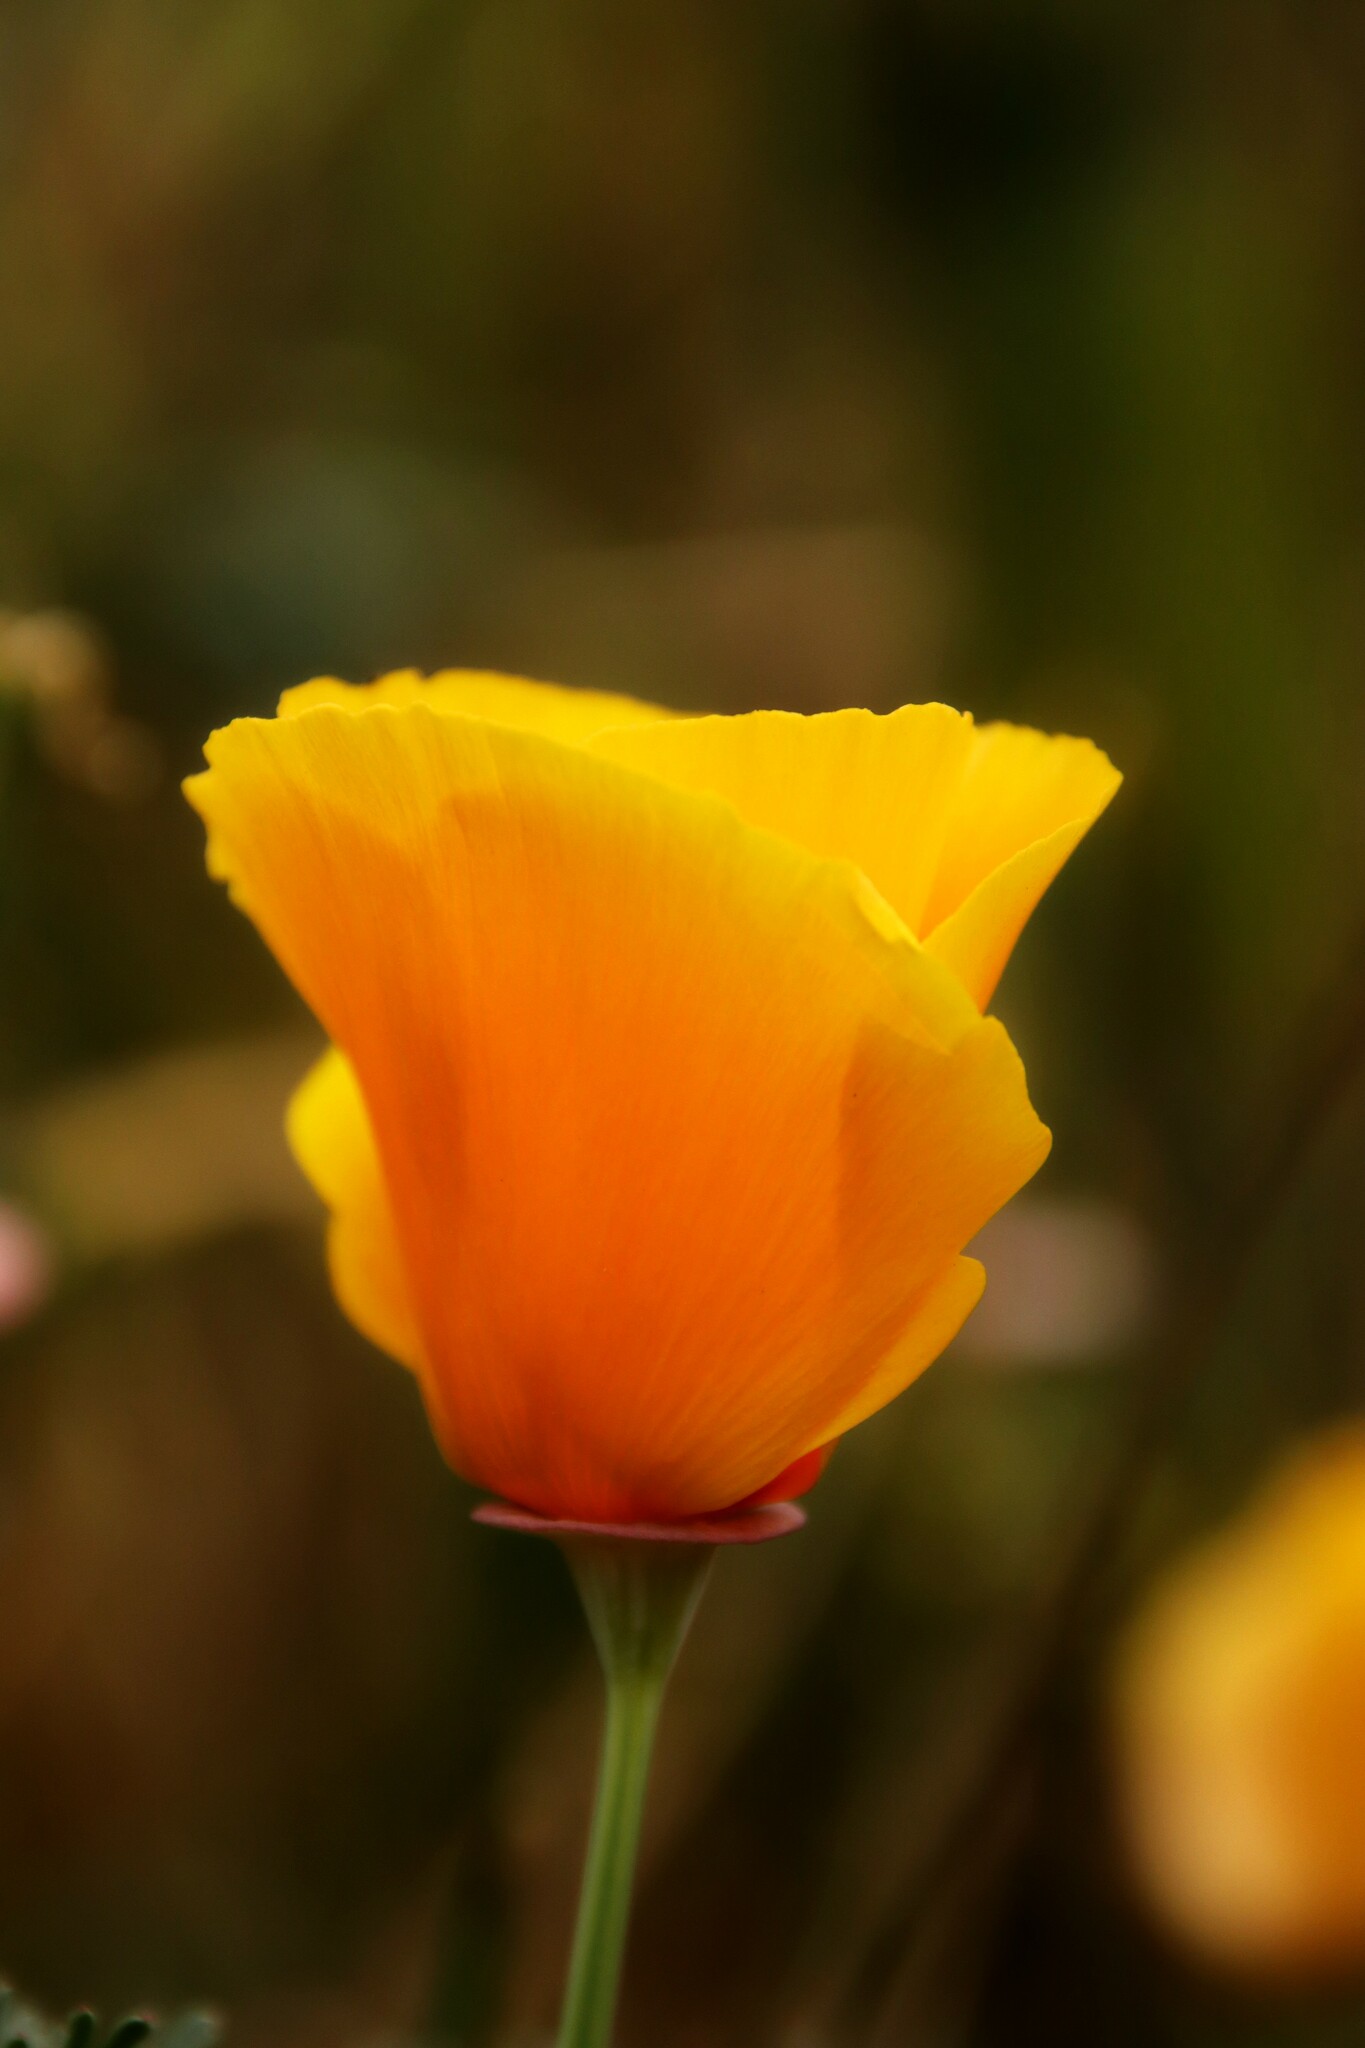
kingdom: Plantae
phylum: Tracheophyta
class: Magnoliopsida
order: Ranunculales
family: Papaveraceae
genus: Eschscholzia
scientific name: Eschscholzia californica
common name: California poppy
